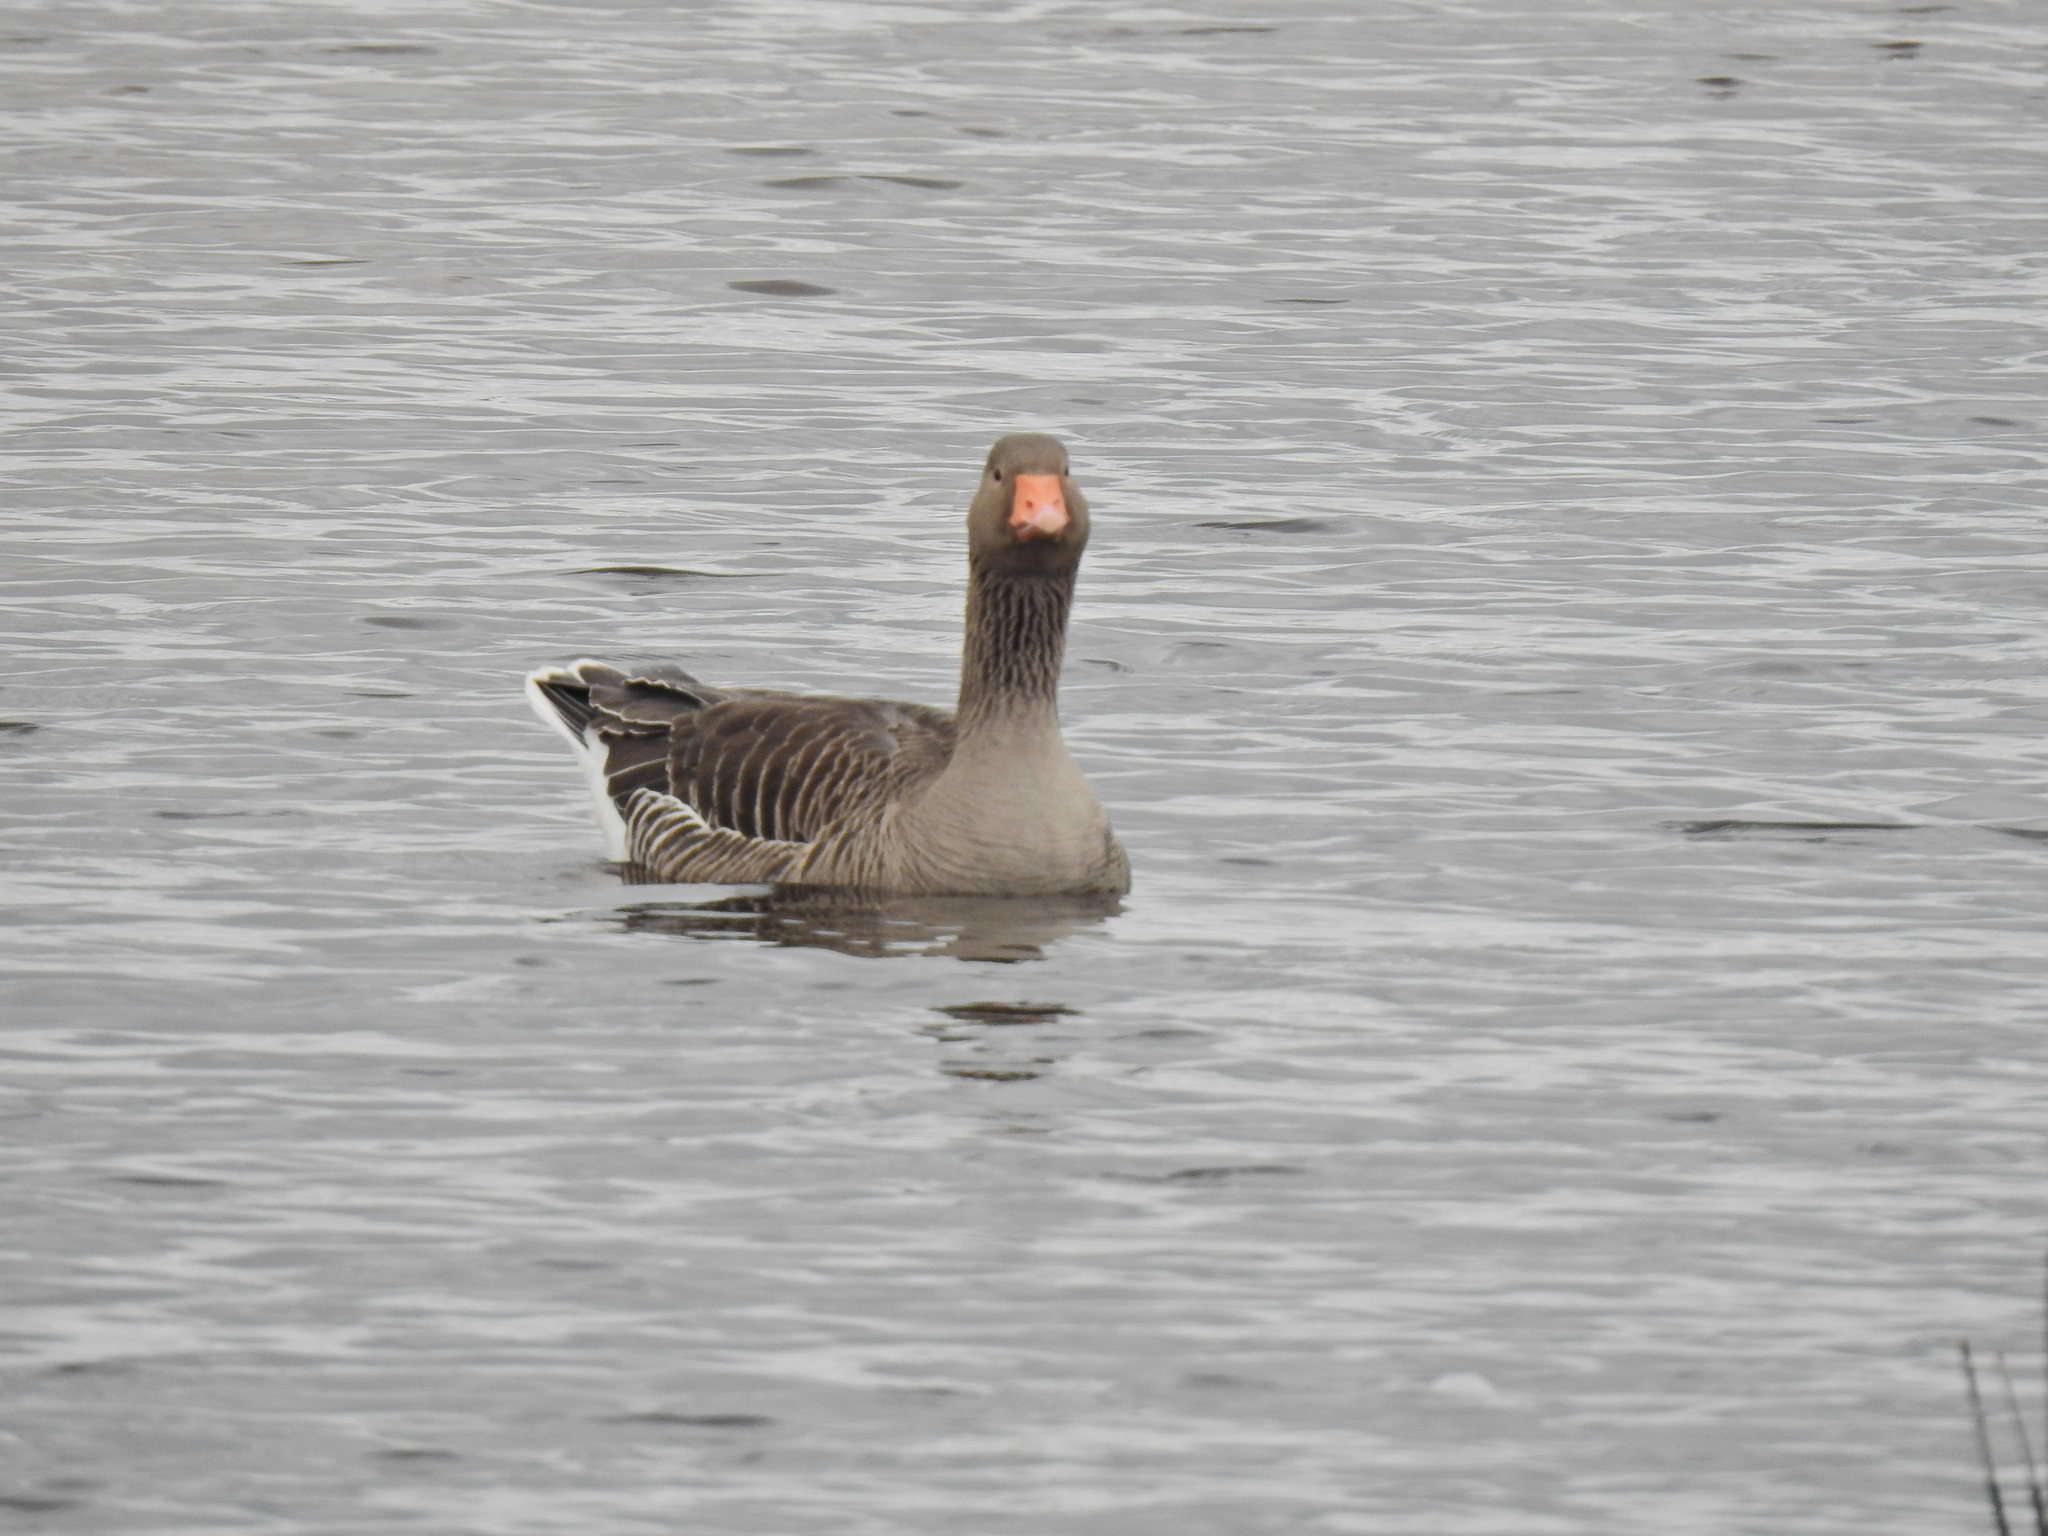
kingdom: Animalia
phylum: Chordata
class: Aves
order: Anseriformes
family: Anatidae
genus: Anser
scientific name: Anser anser
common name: Greylag goose
